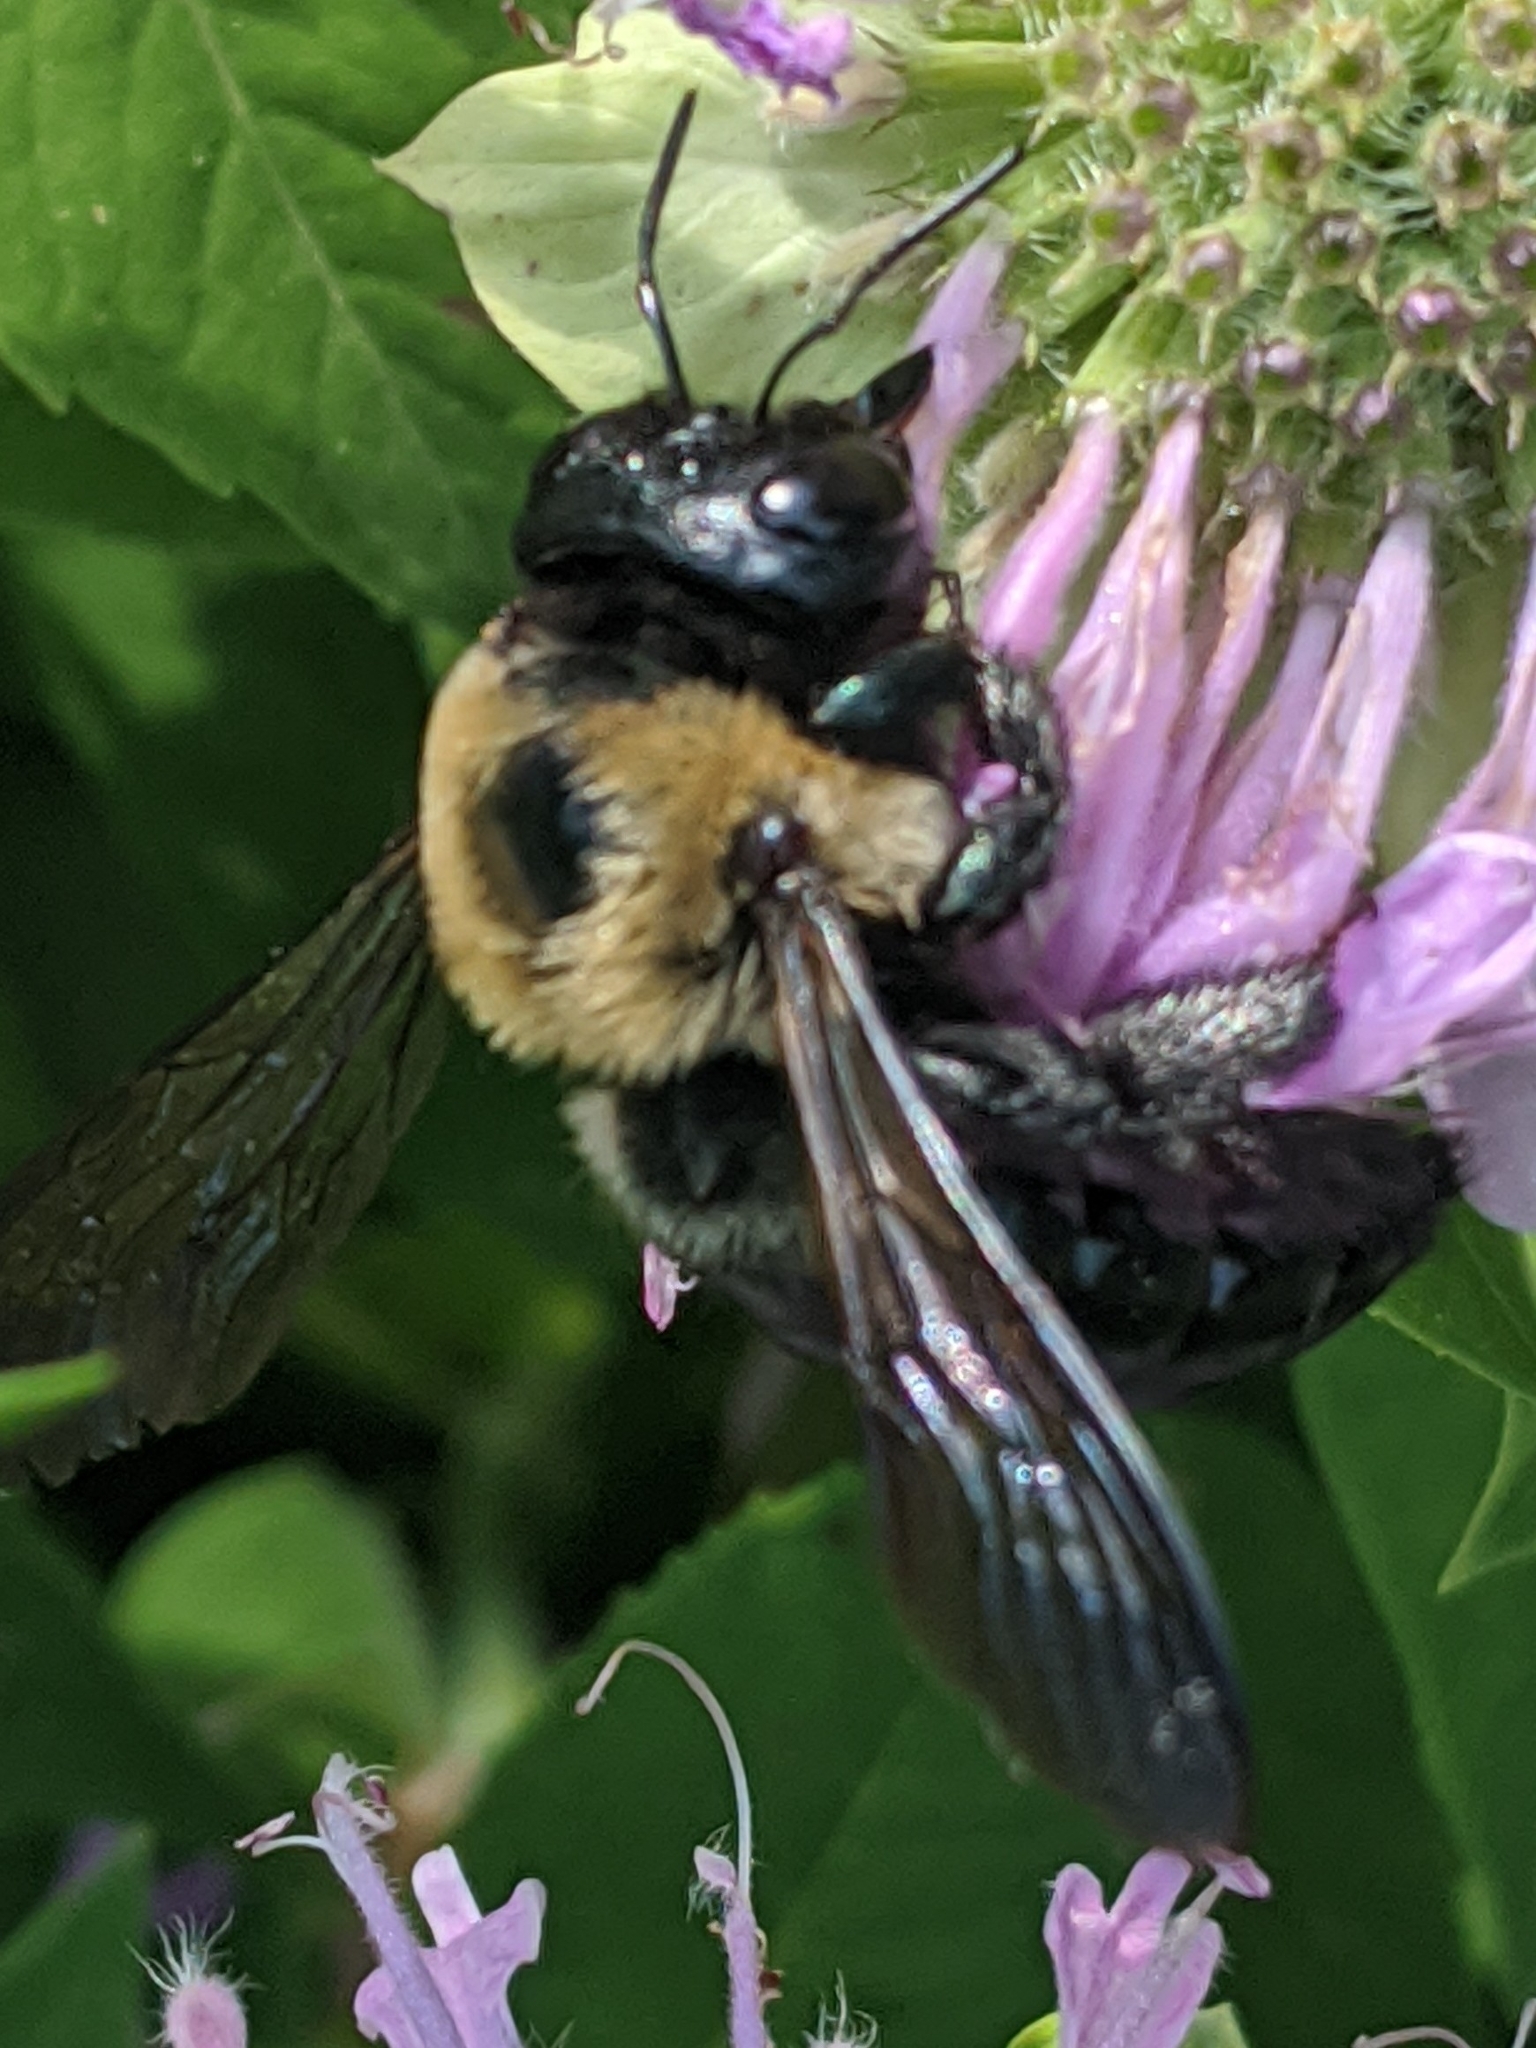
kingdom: Animalia
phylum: Arthropoda
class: Insecta
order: Hymenoptera
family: Apidae
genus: Xylocopa
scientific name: Xylocopa virginica
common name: Carpenter bee
